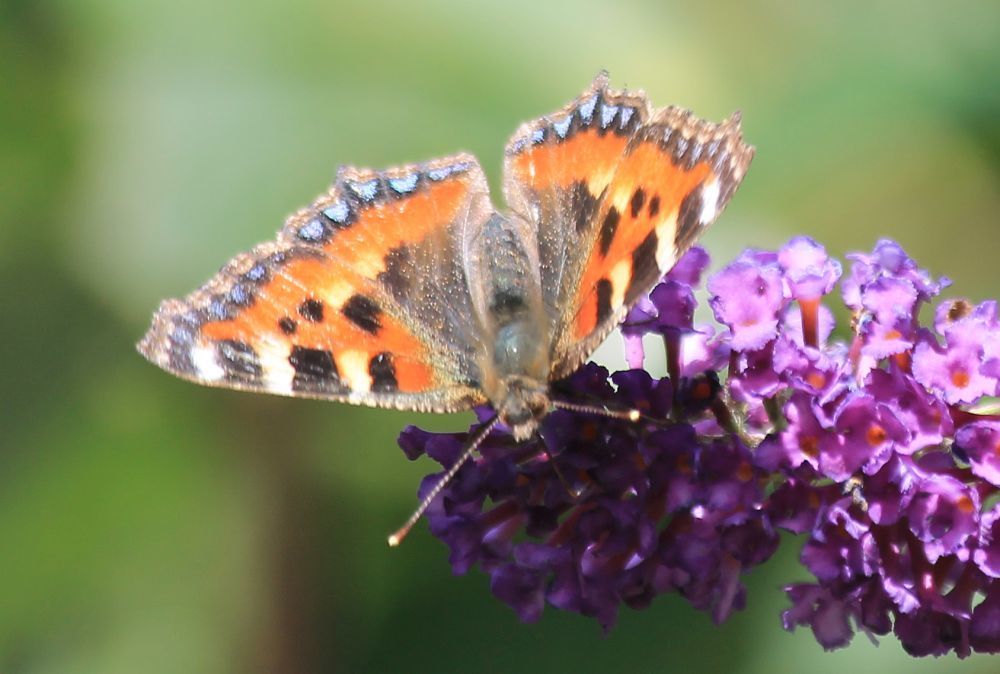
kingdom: Animalia
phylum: Arthropoda
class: Insecta
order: Lepidoptera
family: Nymphalidae
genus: Aglais
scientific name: Aglais urticae
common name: Small tortoiseshell
